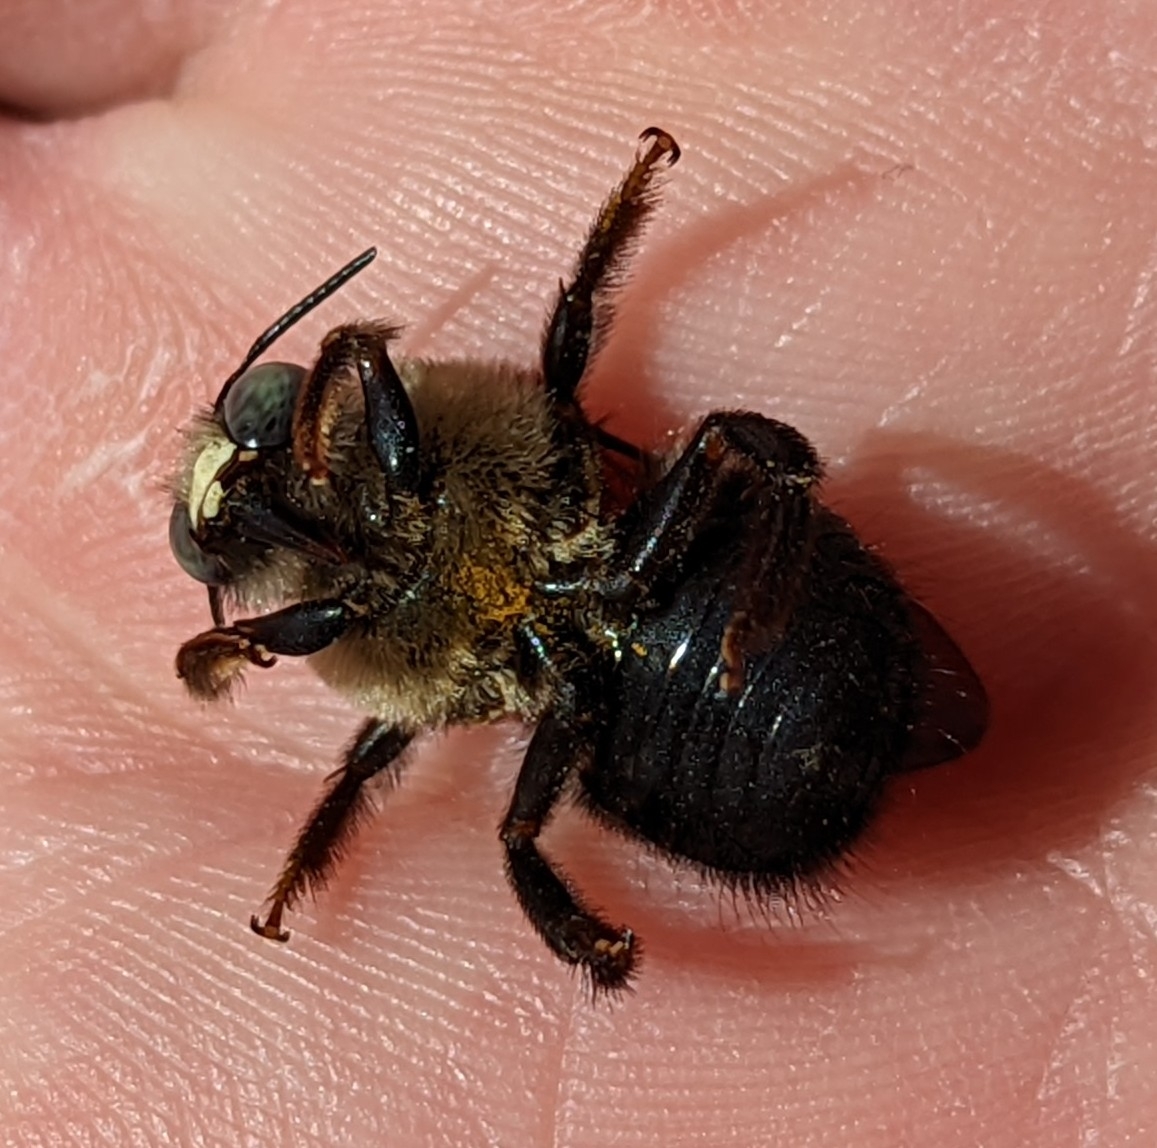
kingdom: Animalia
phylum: Arthropoda
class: Insecta
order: Hymenoptera
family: Apidae
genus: Xylocopa
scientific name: Xylocopa tabaniformis
